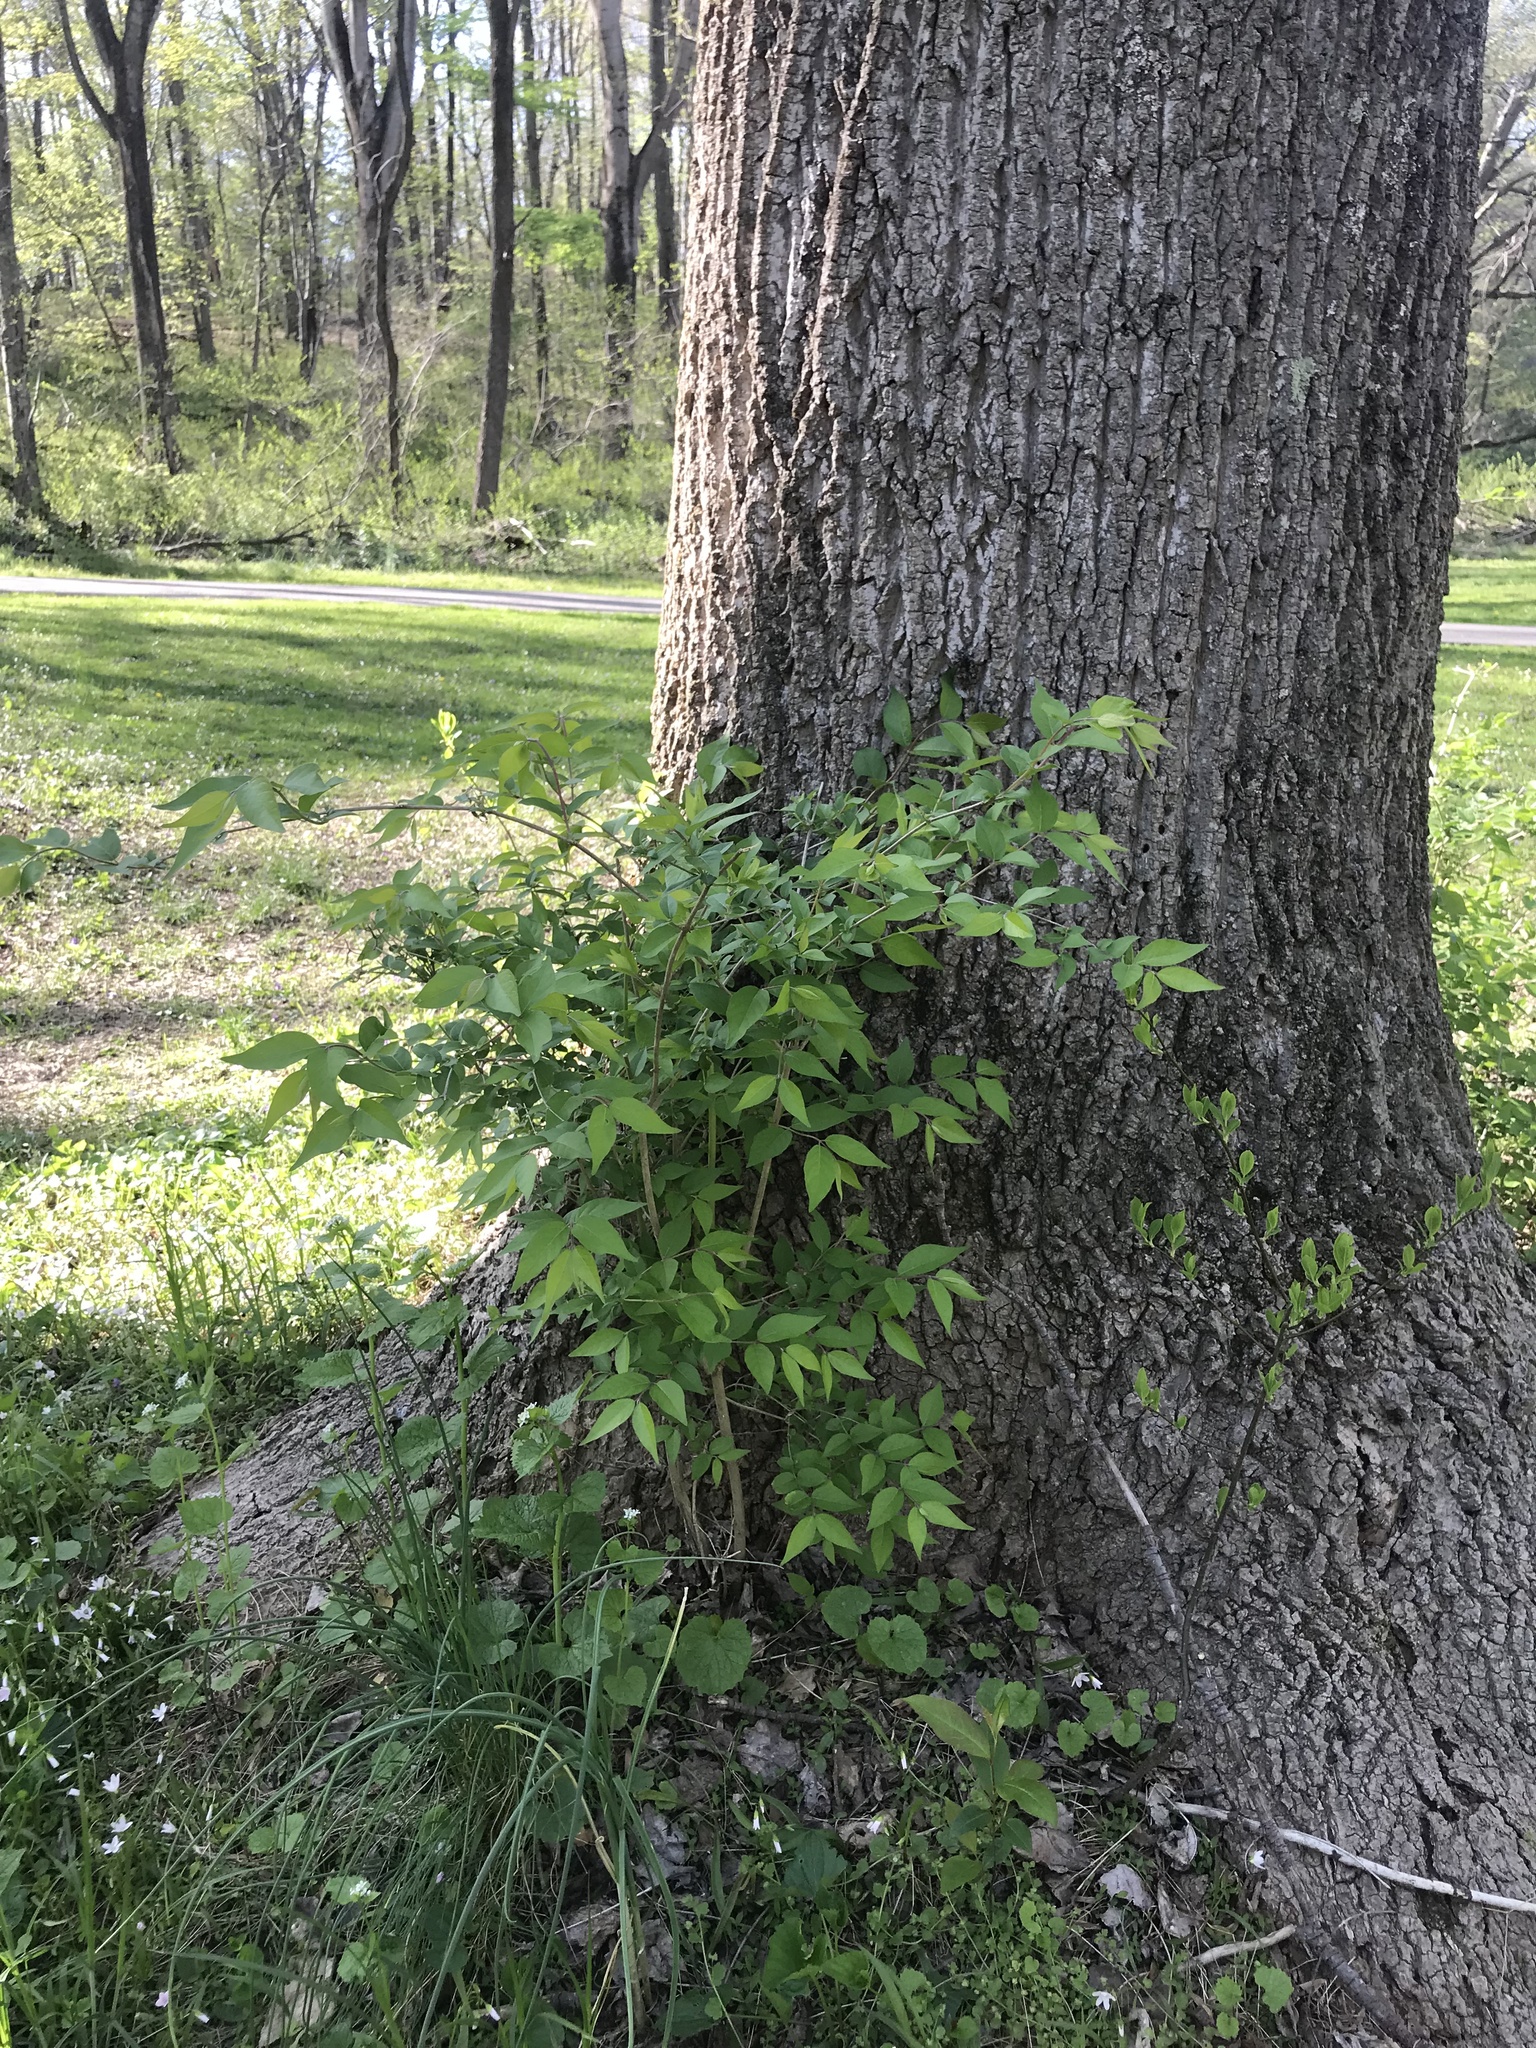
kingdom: Plantae
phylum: Tracheophyta
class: Magnoliopsida
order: Dipsacales
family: Caprifoliaceae
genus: Lonicera
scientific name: Lonicera maackii
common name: Amur honeysuckle
